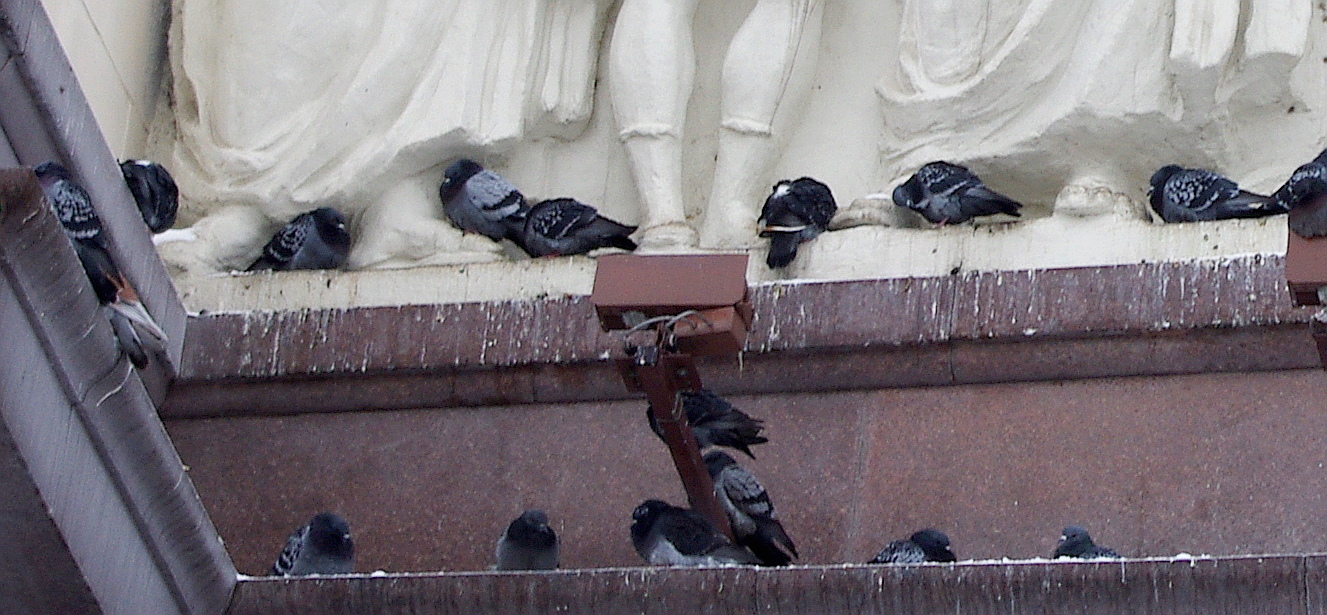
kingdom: Animalia
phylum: Chordata
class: Aves
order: Columbiformes
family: Columbidae
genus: Columba
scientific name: Columba livia
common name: Rock pigeon
